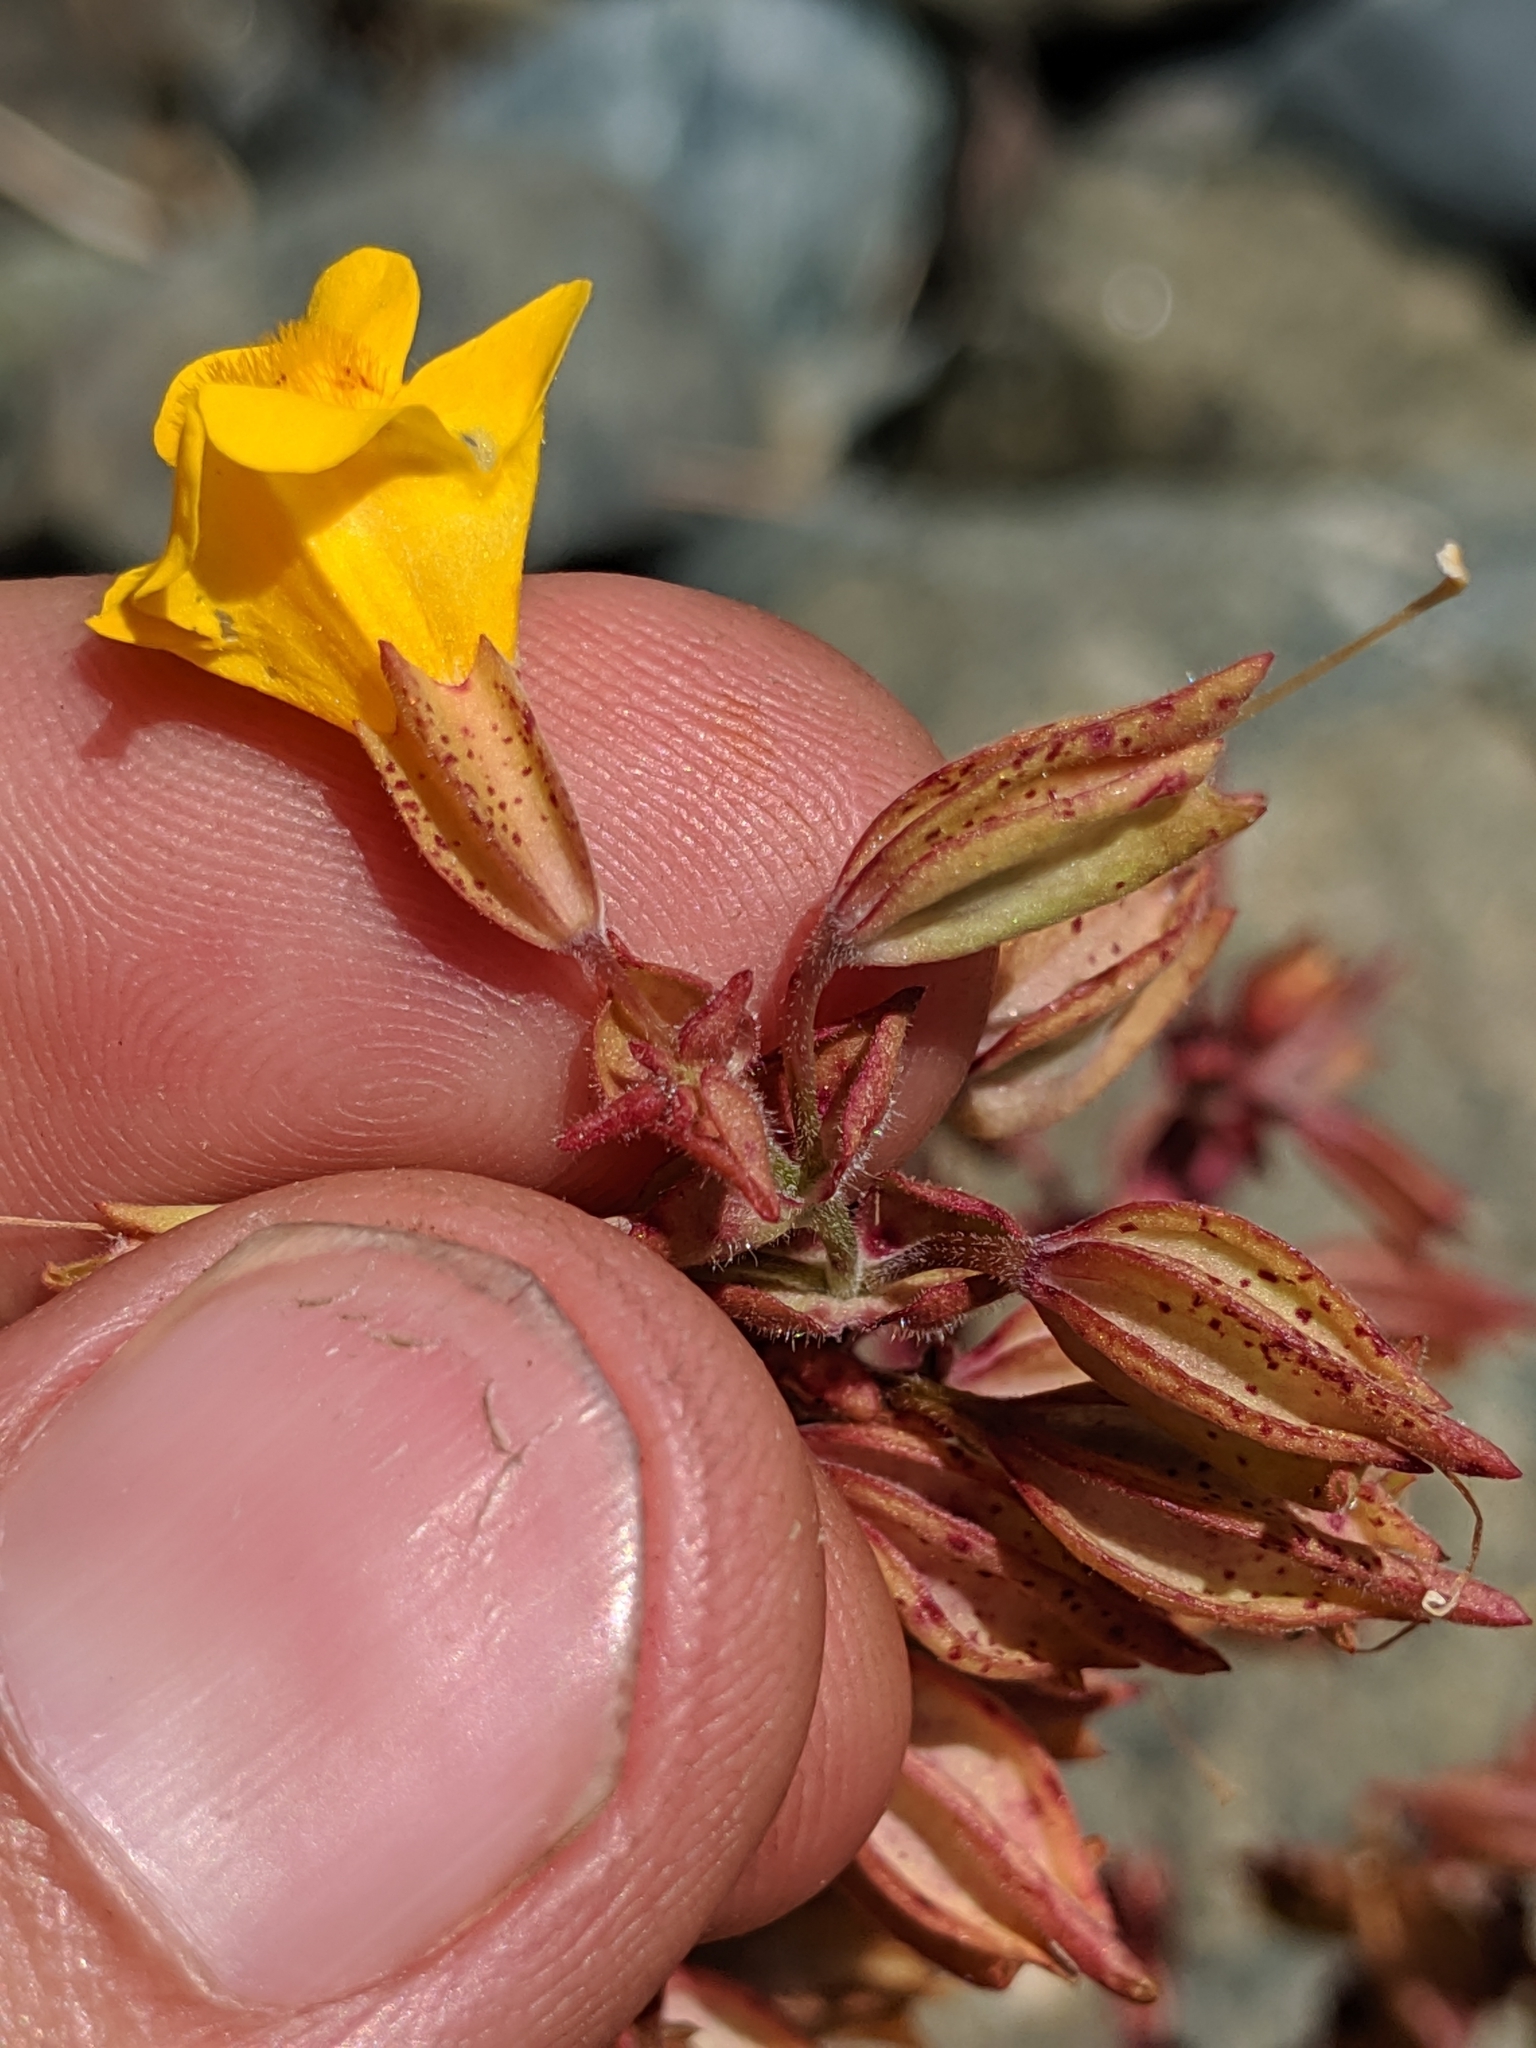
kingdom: Plantae
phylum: Tracheophyta
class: Magnoliopsida
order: Lamiales
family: Phrymaceae
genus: Erythranthe
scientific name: Erythranthe guttata
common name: Monkeyflower
